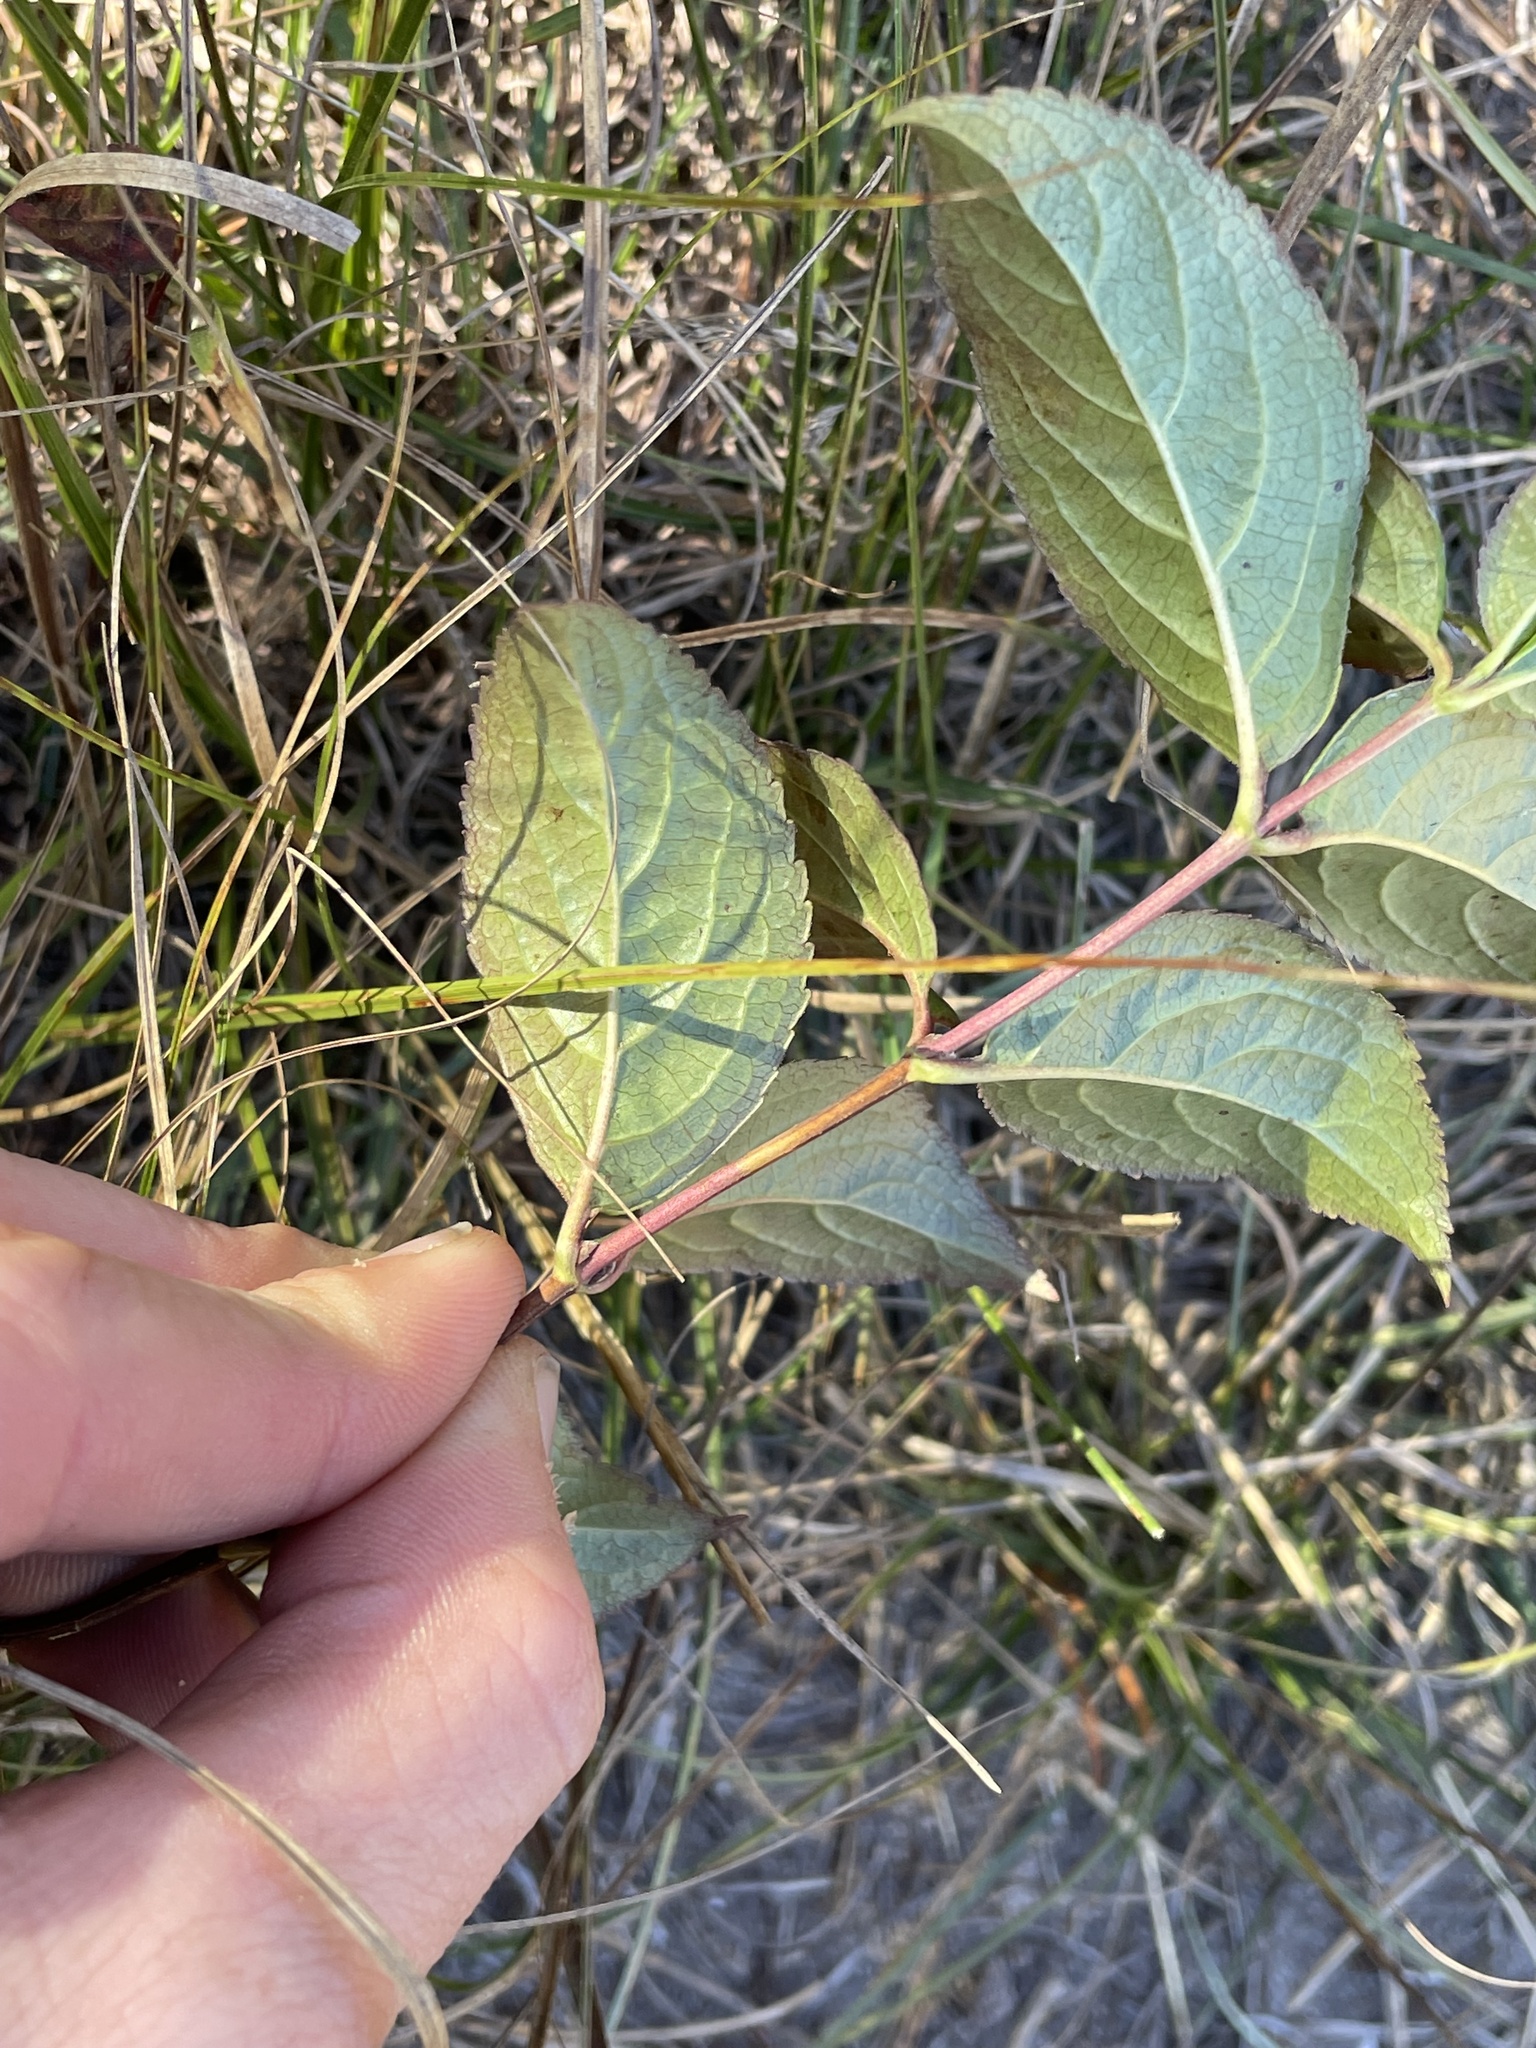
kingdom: Plantae
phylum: Tracheophyta
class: Magnoliopsida
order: Dipsacales
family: Caprifoliaceae
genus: Diervilla
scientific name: Diervilla lonicera
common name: Bush-honeysuckle
